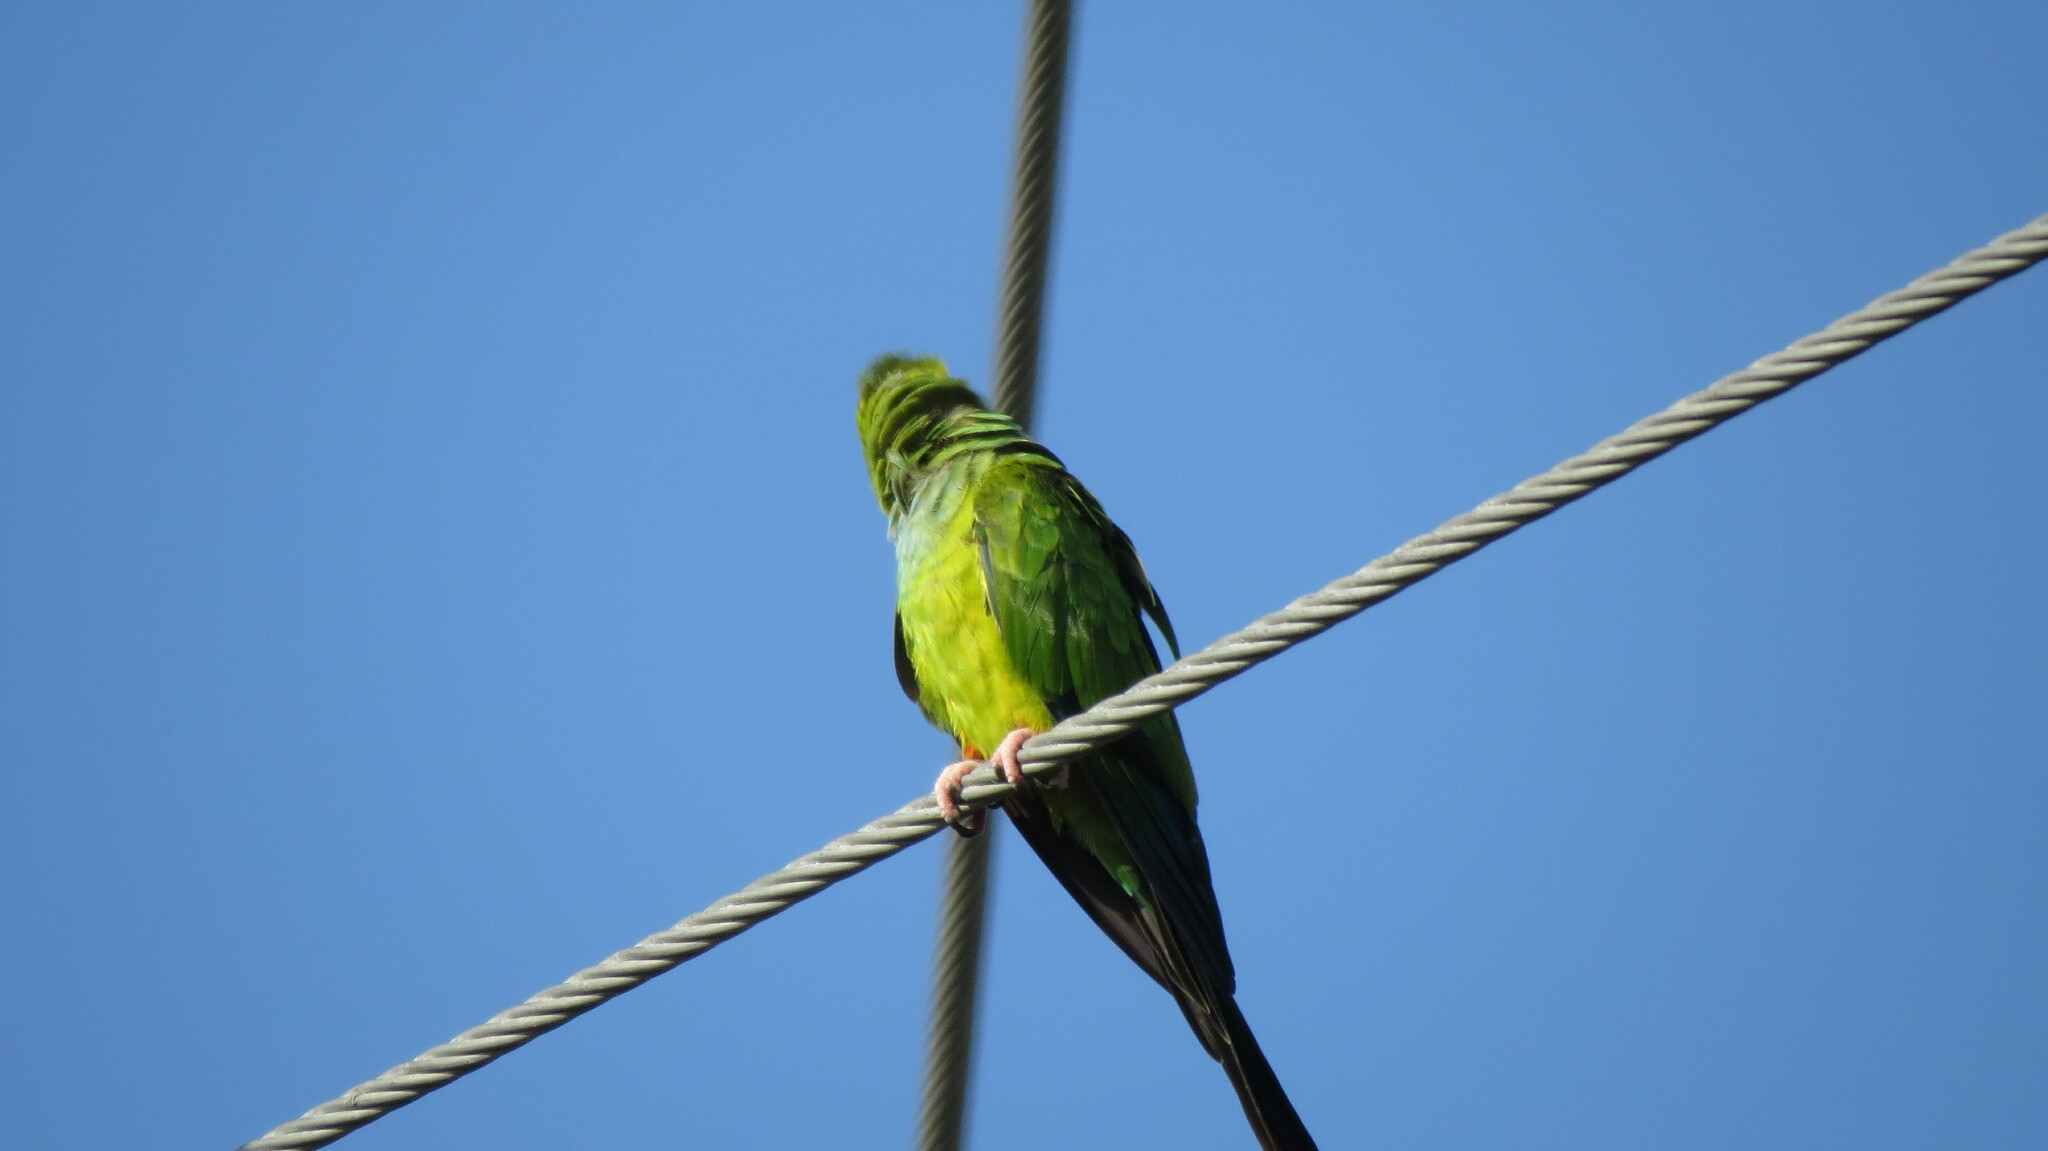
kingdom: Animalia
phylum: Chordata
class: Aves
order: Psittaciformes
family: Psittacidae
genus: Nandayus
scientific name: Nandayus nenday
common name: Nanday parakeet
